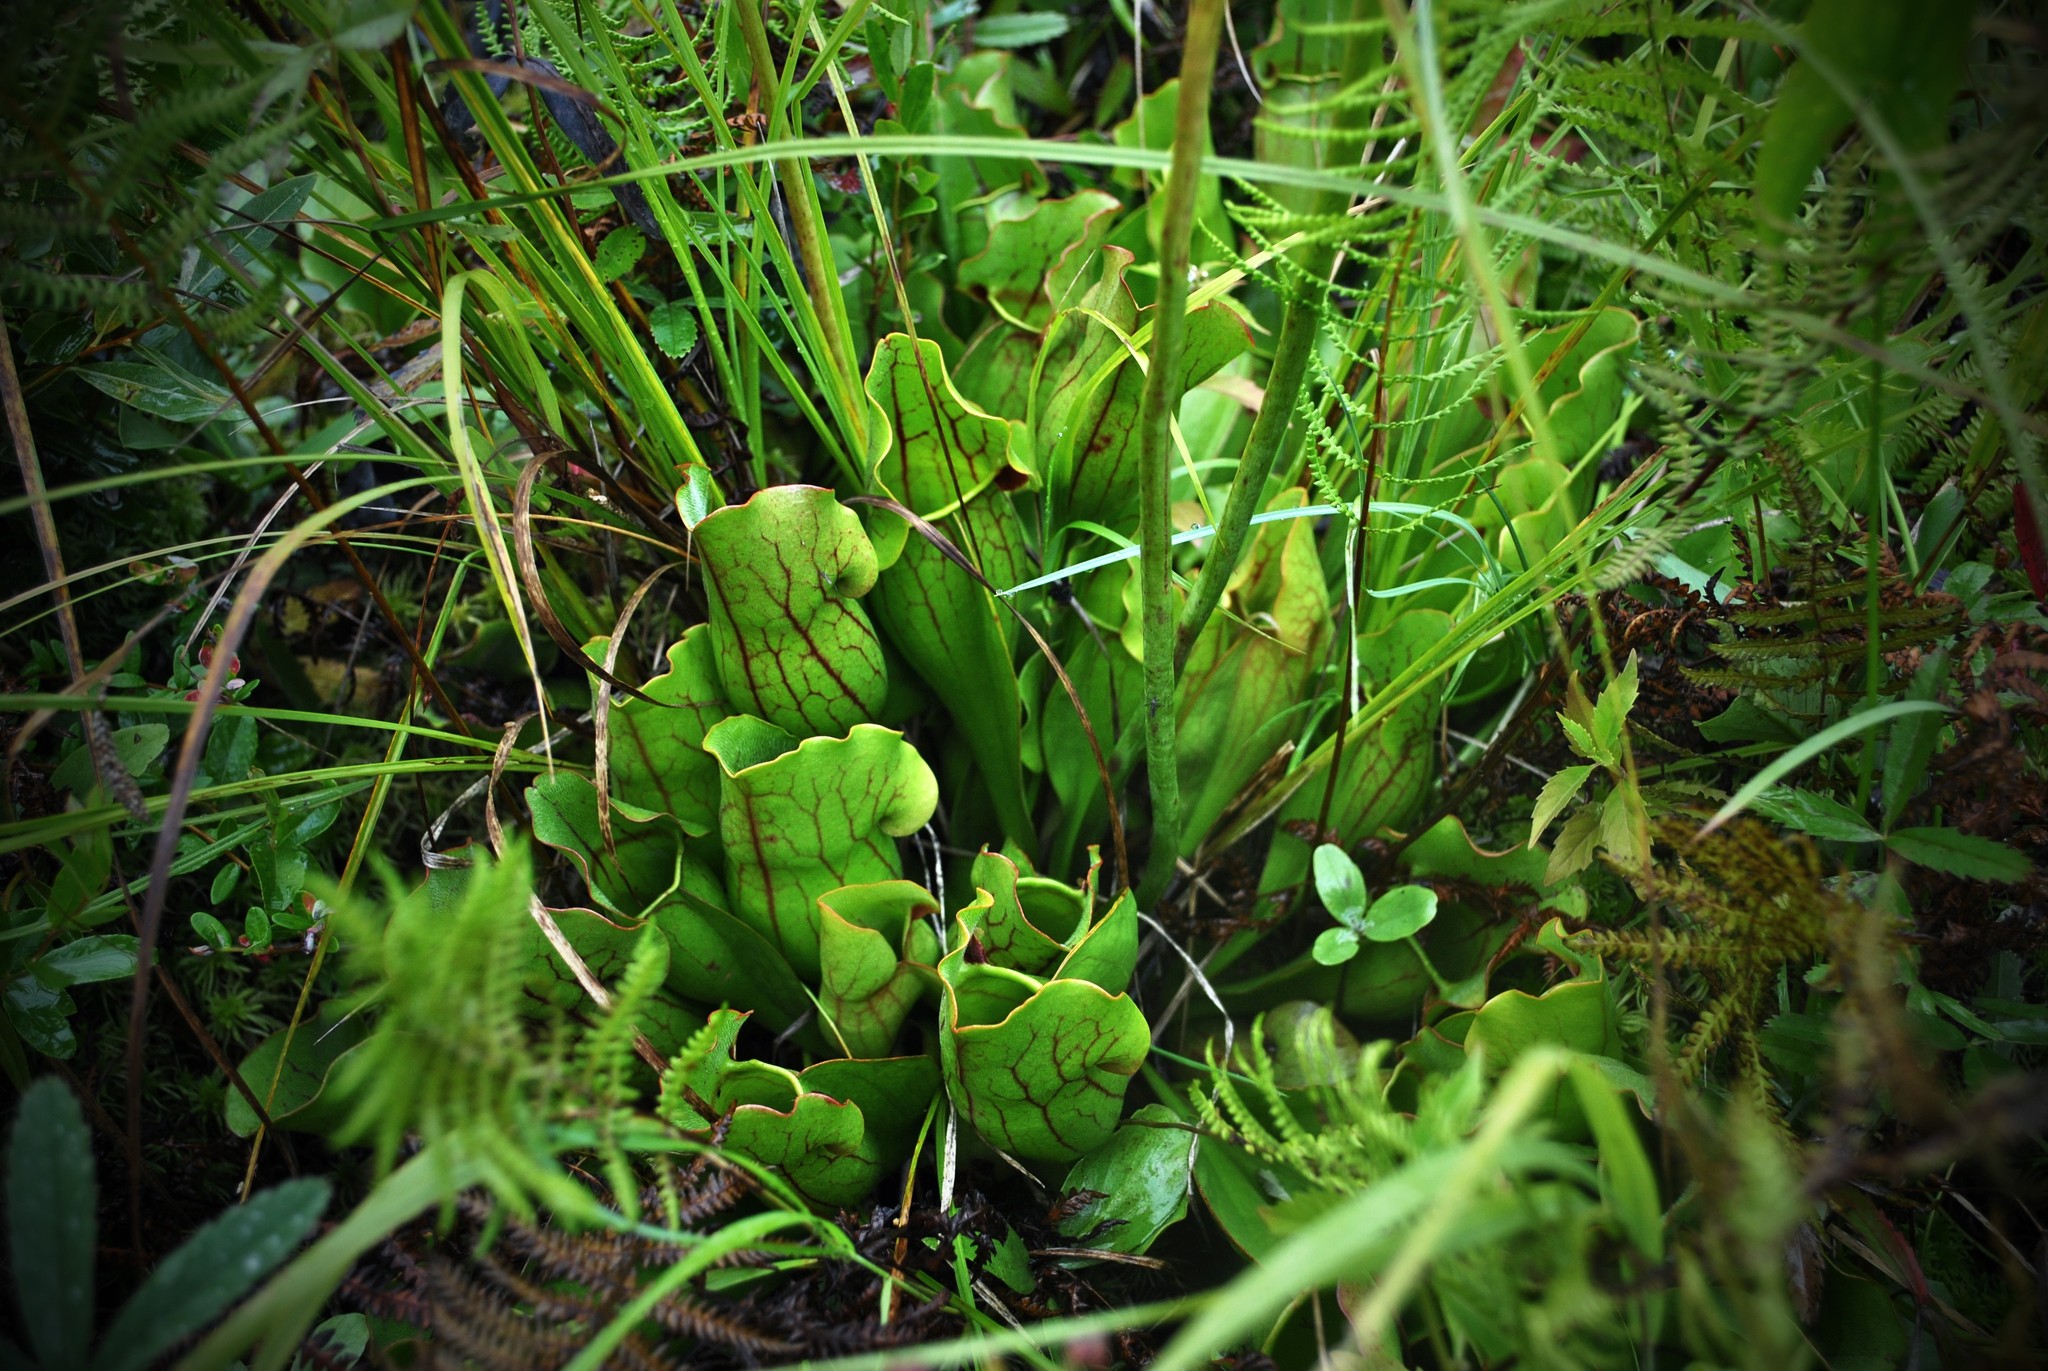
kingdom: Plantae
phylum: Tracheophyta
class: Magnoliopsida
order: Ericales
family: Sarraceniaceae
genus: Sarracenia
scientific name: Sarracenia purpurea
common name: Pitcherplant
